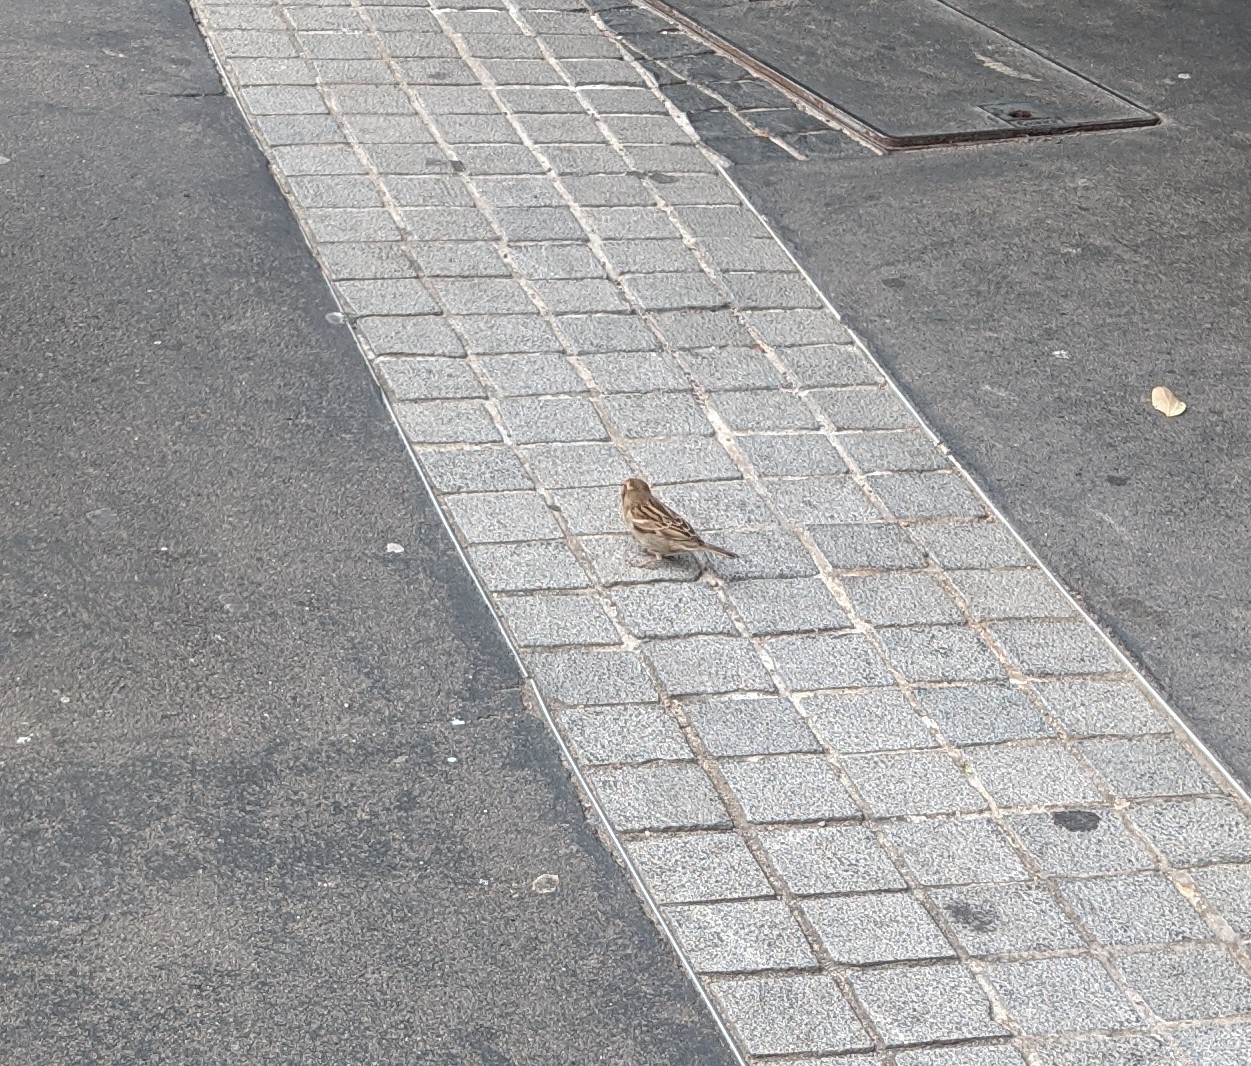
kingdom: Animalia
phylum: Chordata
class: Aves
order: Passeriformes
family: Passeridae
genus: Passer
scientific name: Passer domesticus
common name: House sparrow
